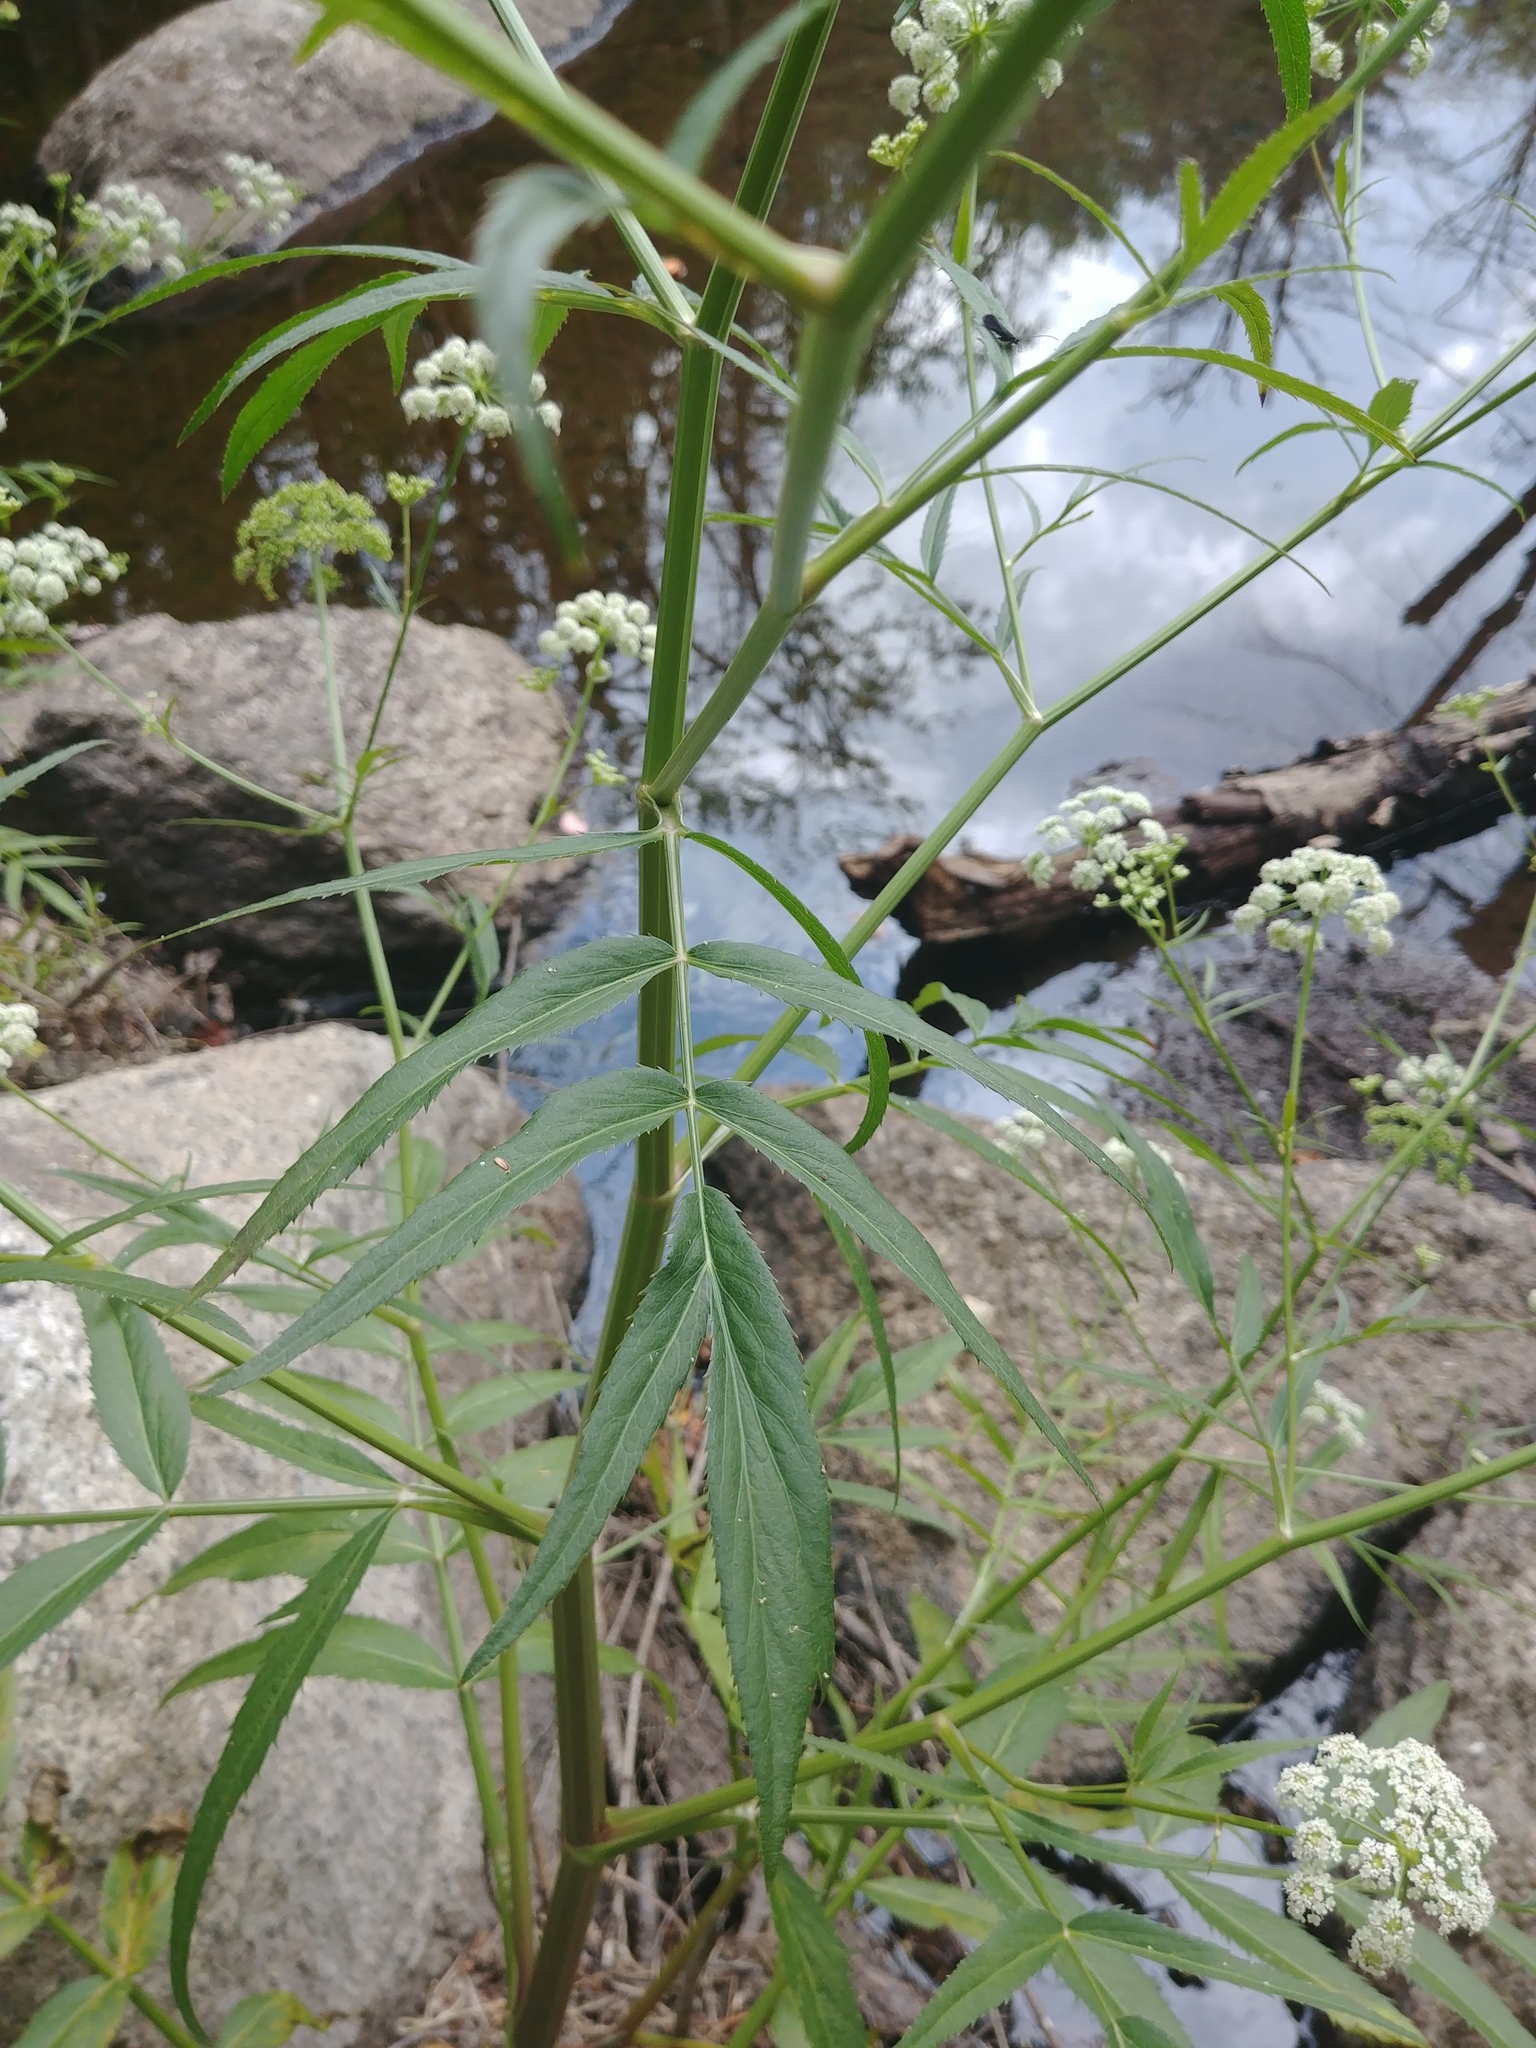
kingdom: Plantae
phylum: Tracheophyta
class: Magnoliopsida
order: Apiales
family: Apiaceae
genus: Sium
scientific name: Sium suave
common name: Hemlock water-parsnip
